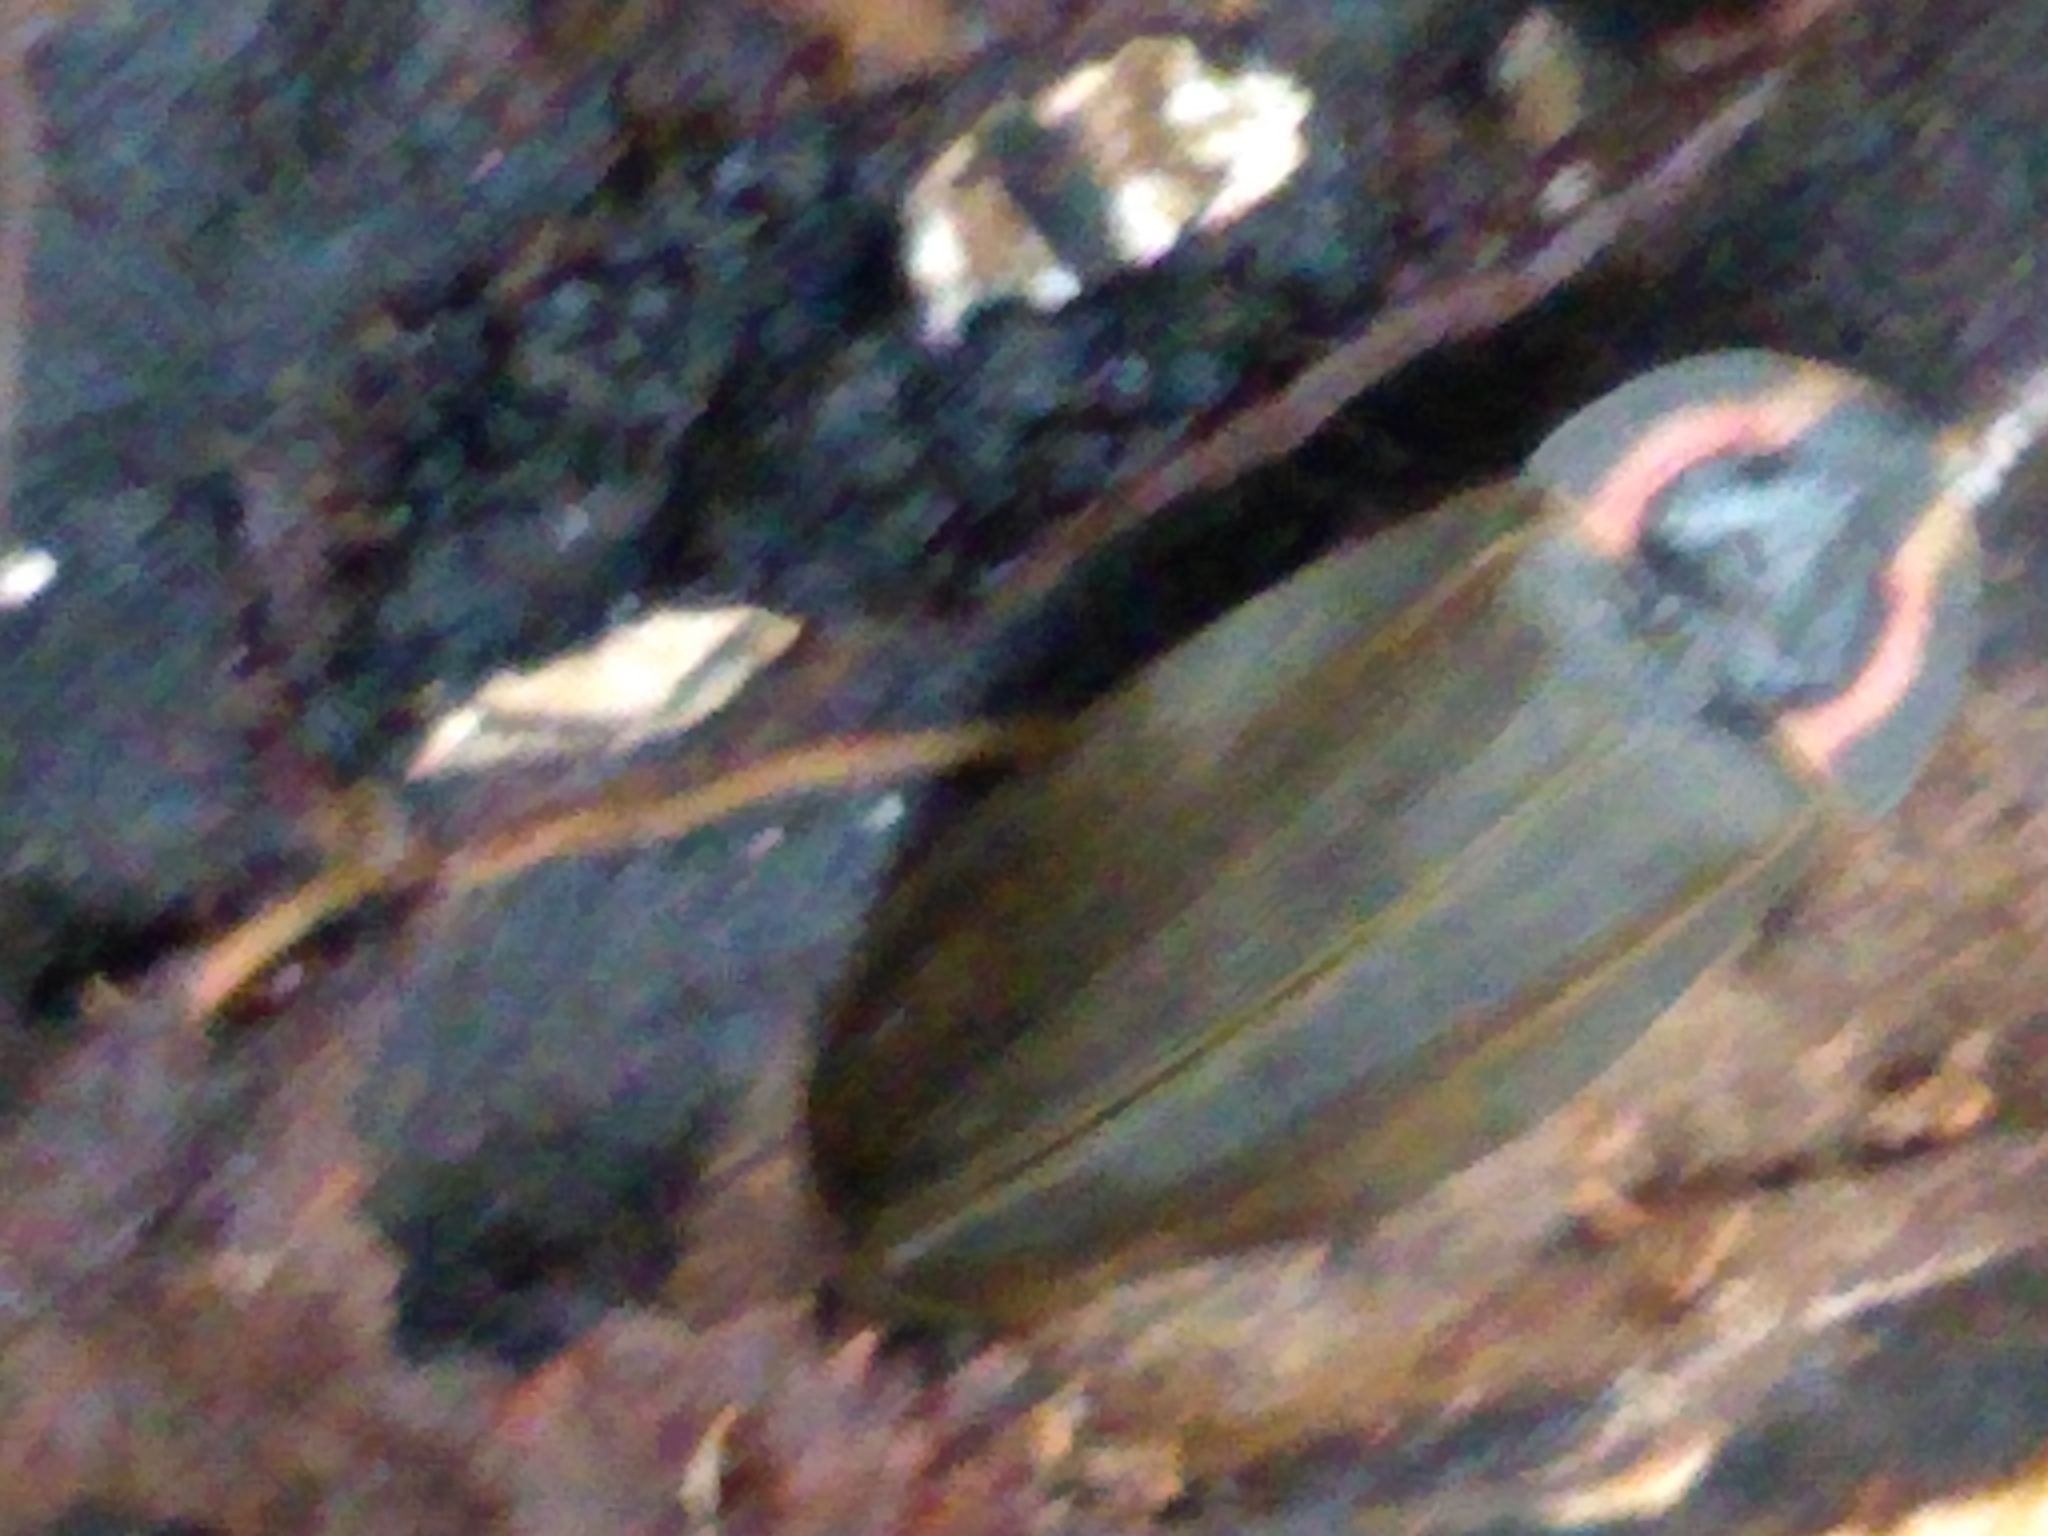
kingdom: Animalia
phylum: Arthropoda
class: Insecta
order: Coleoptera
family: Lampyridae
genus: Photinus
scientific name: Photinus corrusca
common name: Winter firefly
